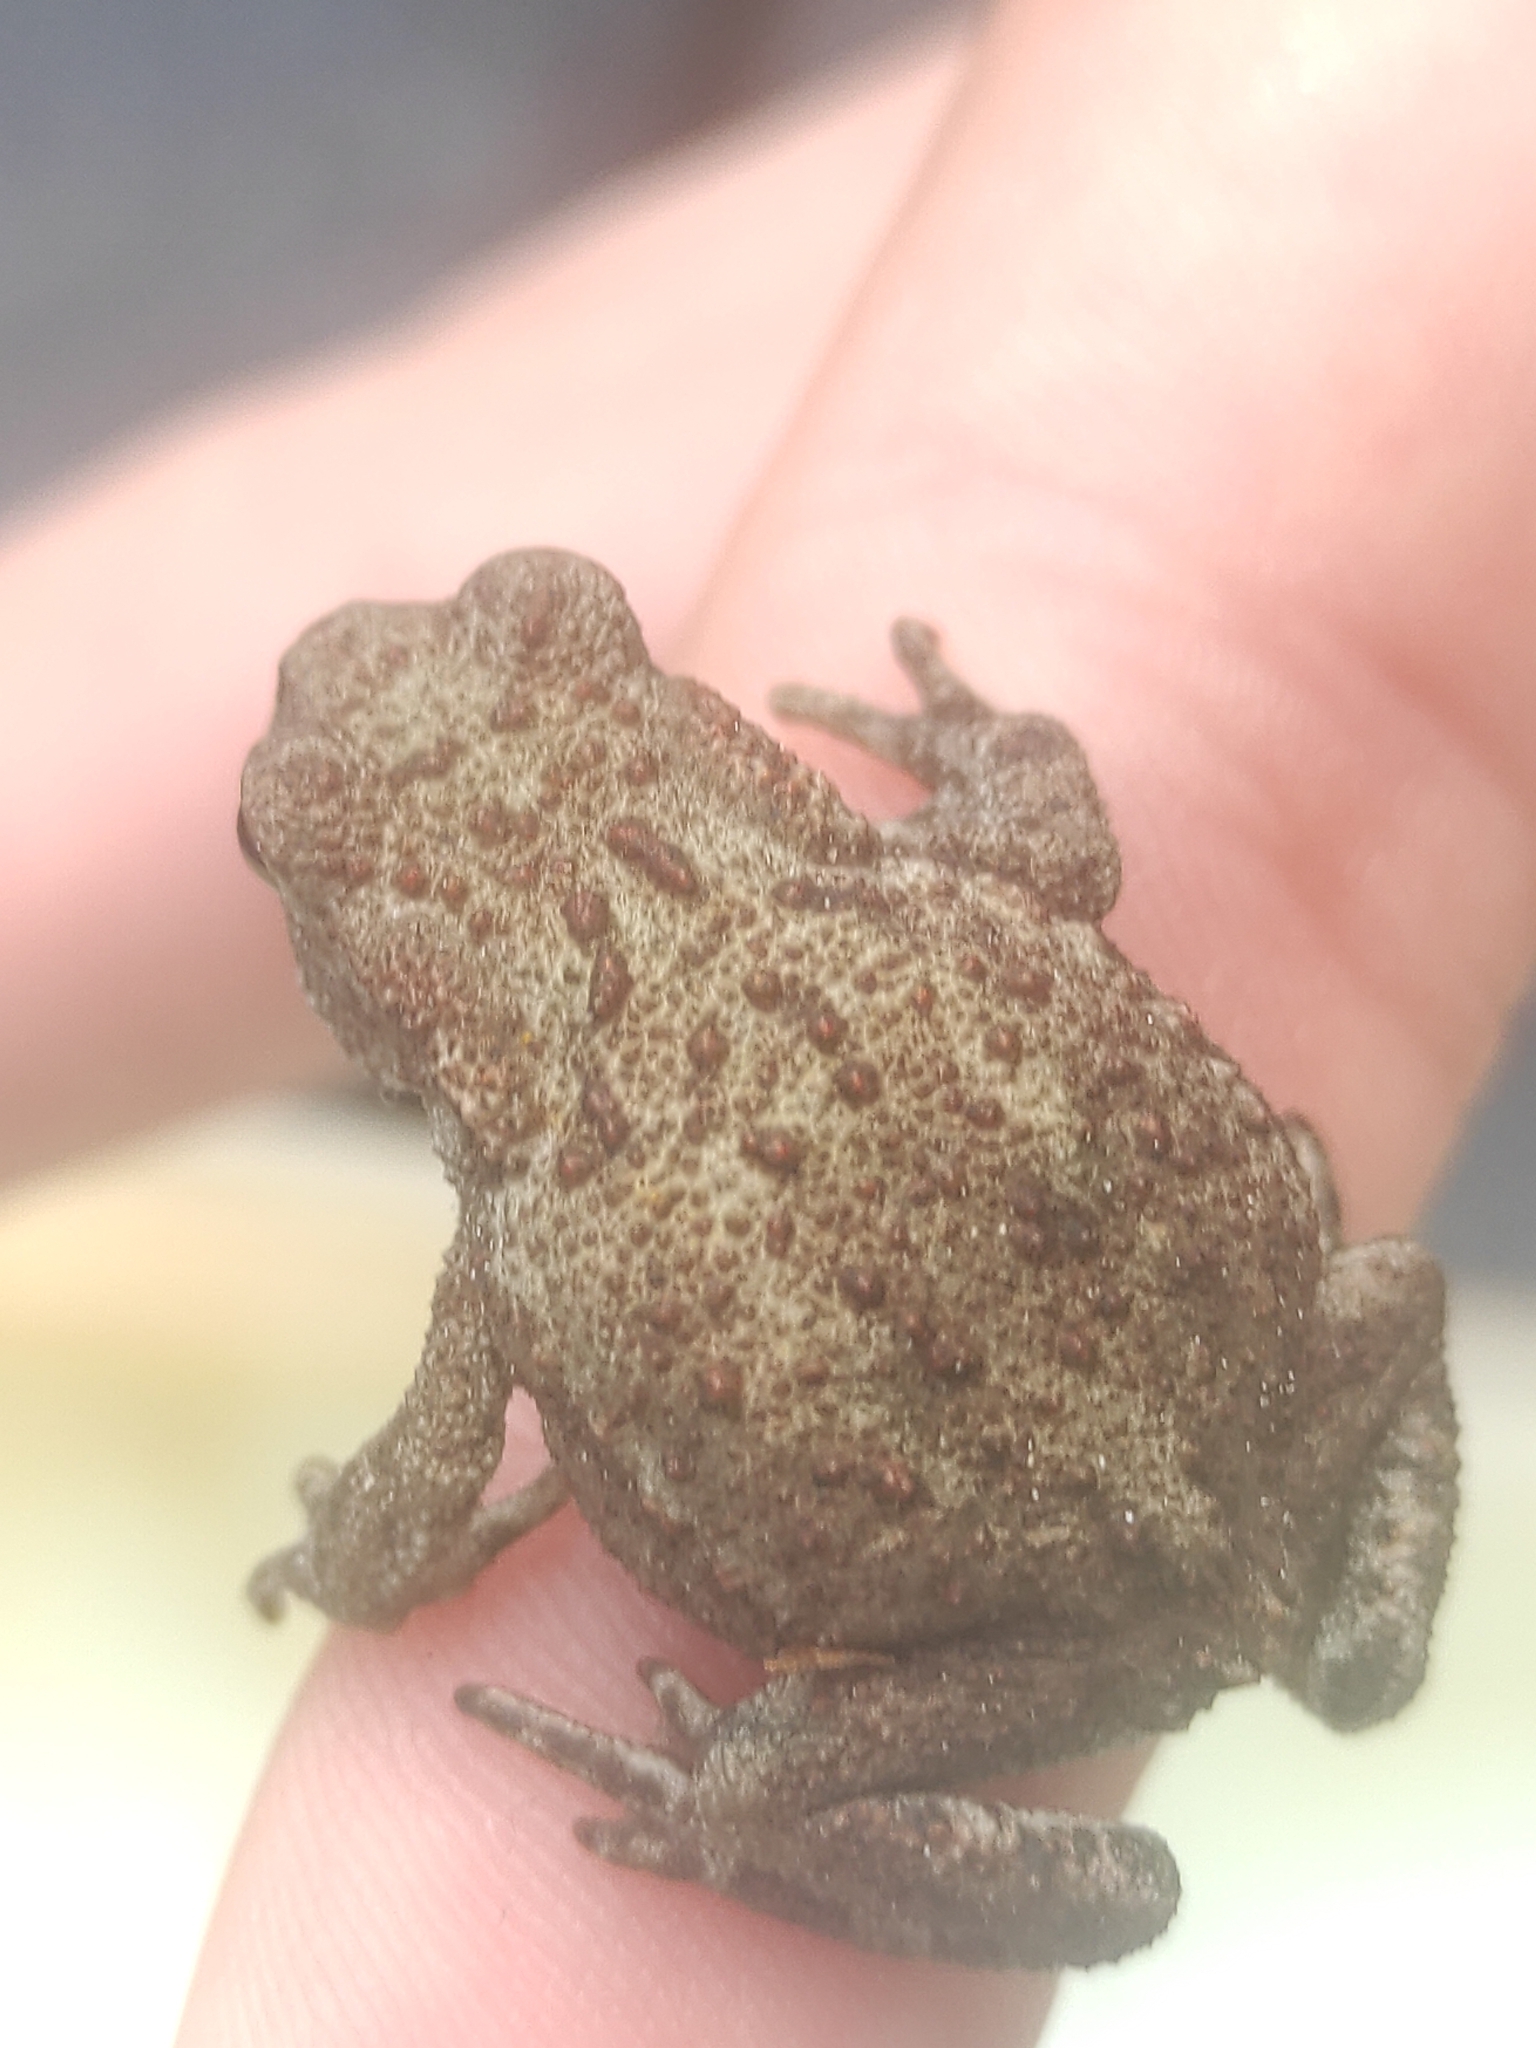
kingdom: Animalia
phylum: Chordata
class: Amphibia
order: Anura
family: Bufonidae
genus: Bufo
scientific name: Bufo bufo
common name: Common toad
